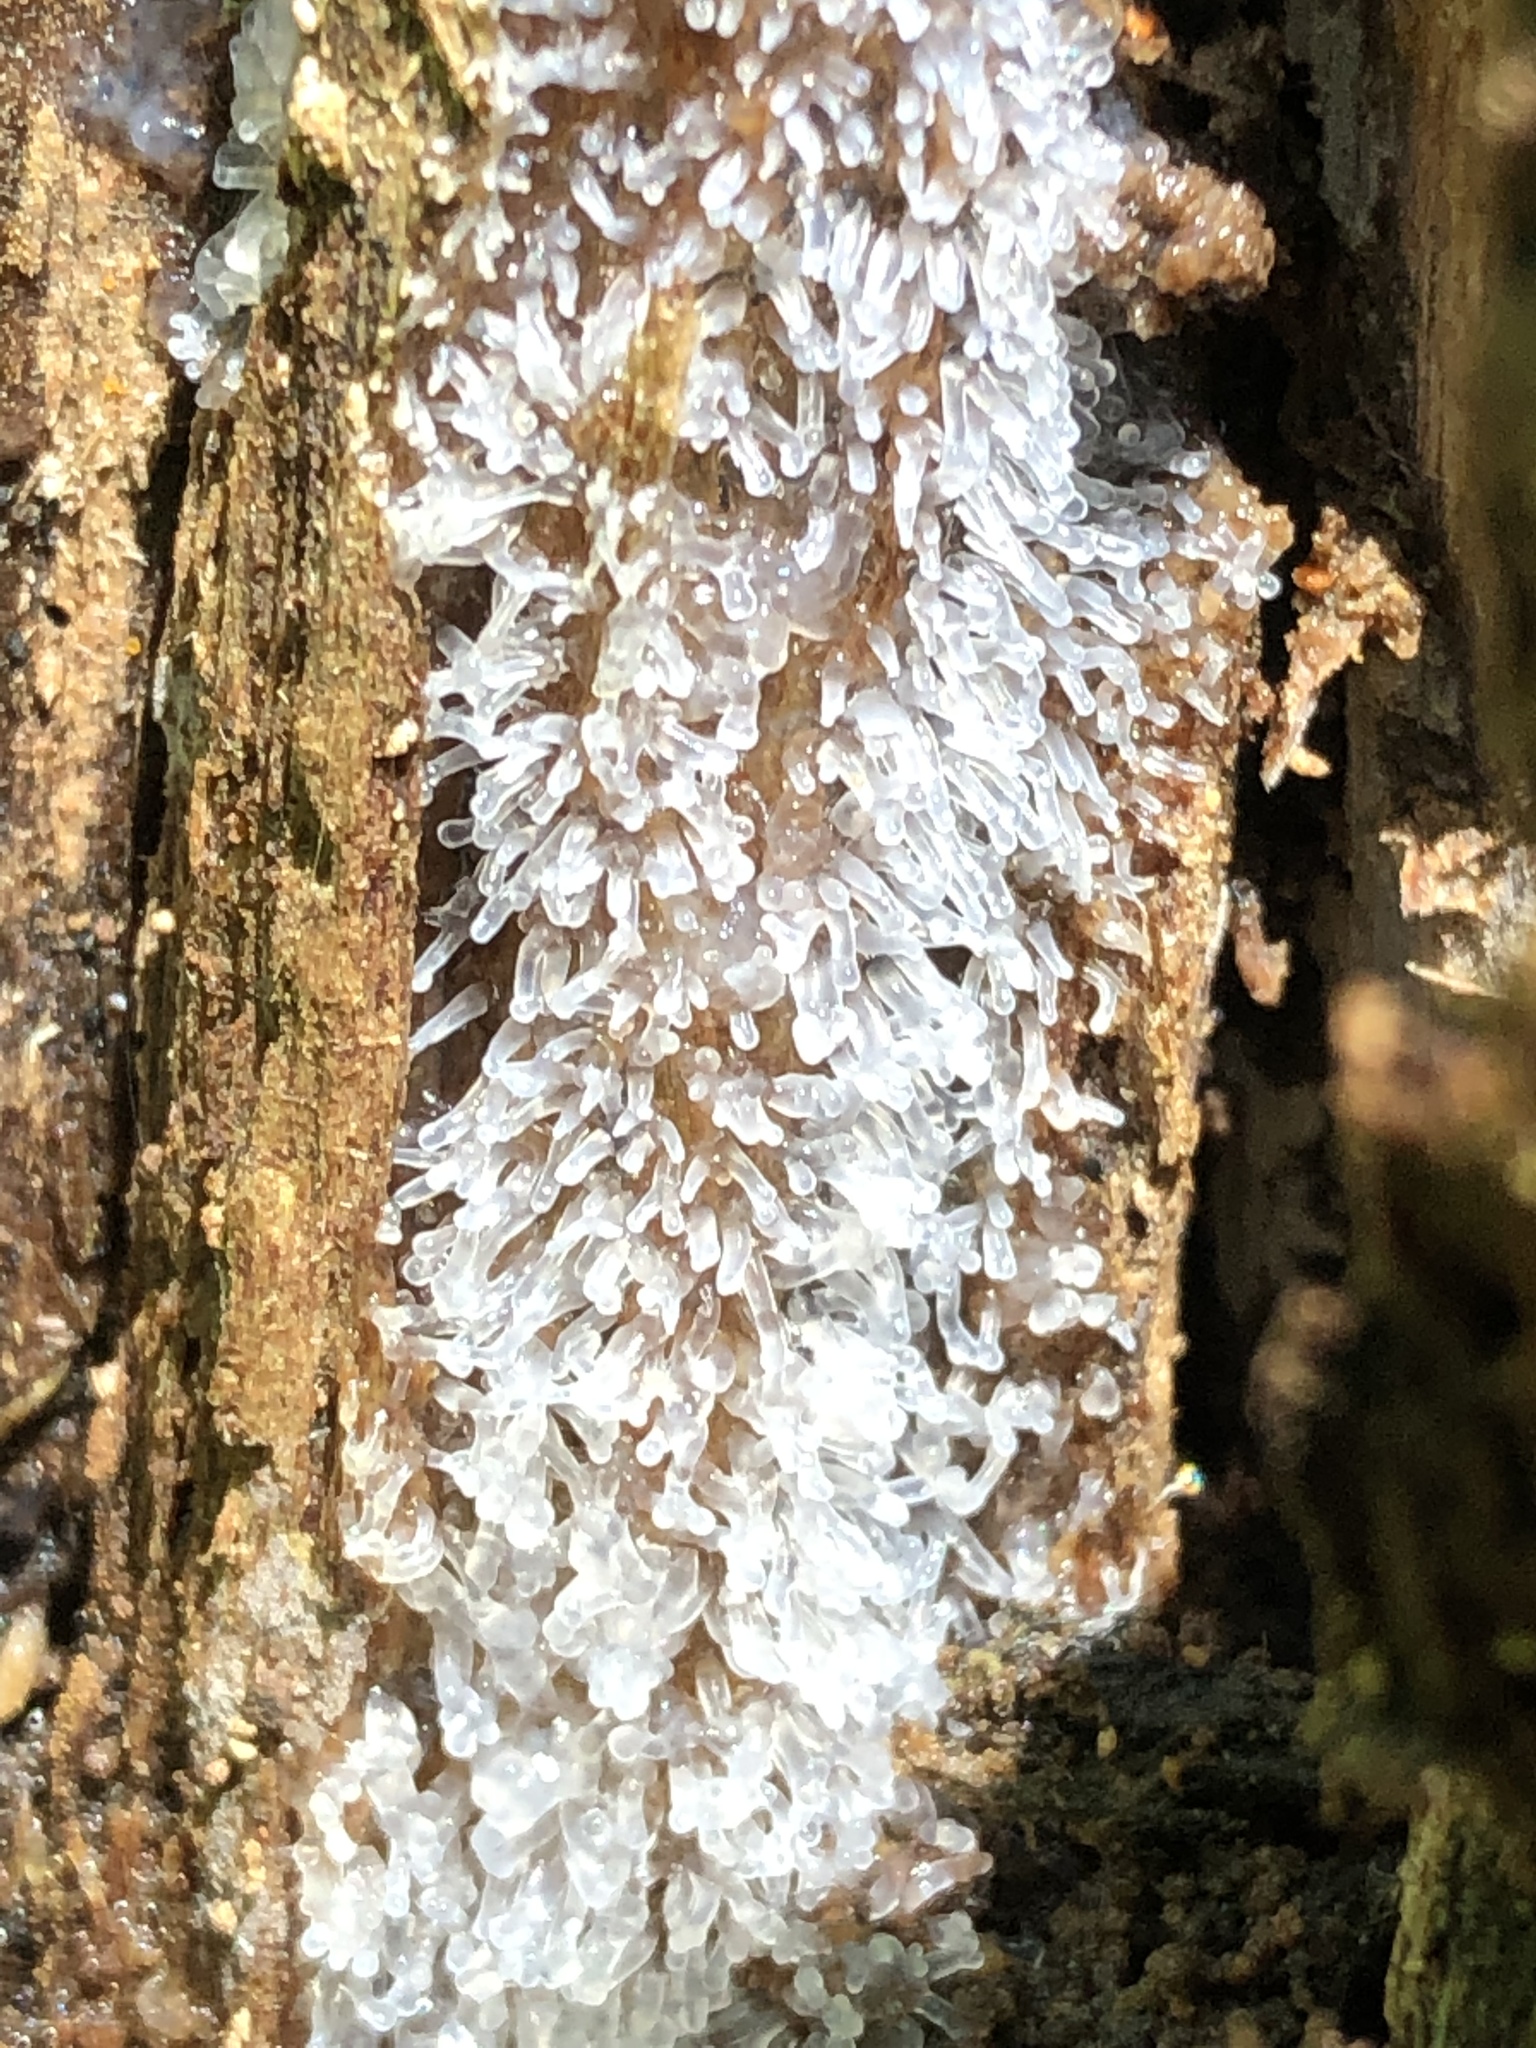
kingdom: Protozoa
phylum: Mycetozoa
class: Protosteliomycetes
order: Ceratiomyxales
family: Ceratiomyxaceae
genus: Ceratiomyxa
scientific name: Ceratiomyxa fruticulosa
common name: Honeycomb coral slime mold
